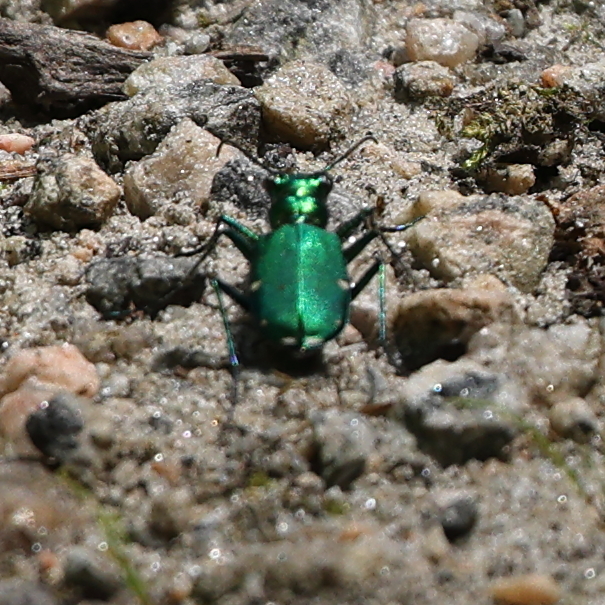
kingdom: Animalia
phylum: Arthropoda
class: Insecta
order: Coleoptera
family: Carabidae
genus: Cicindela
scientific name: Cicindela sexguttata
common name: Six-spotted tiger beetle
